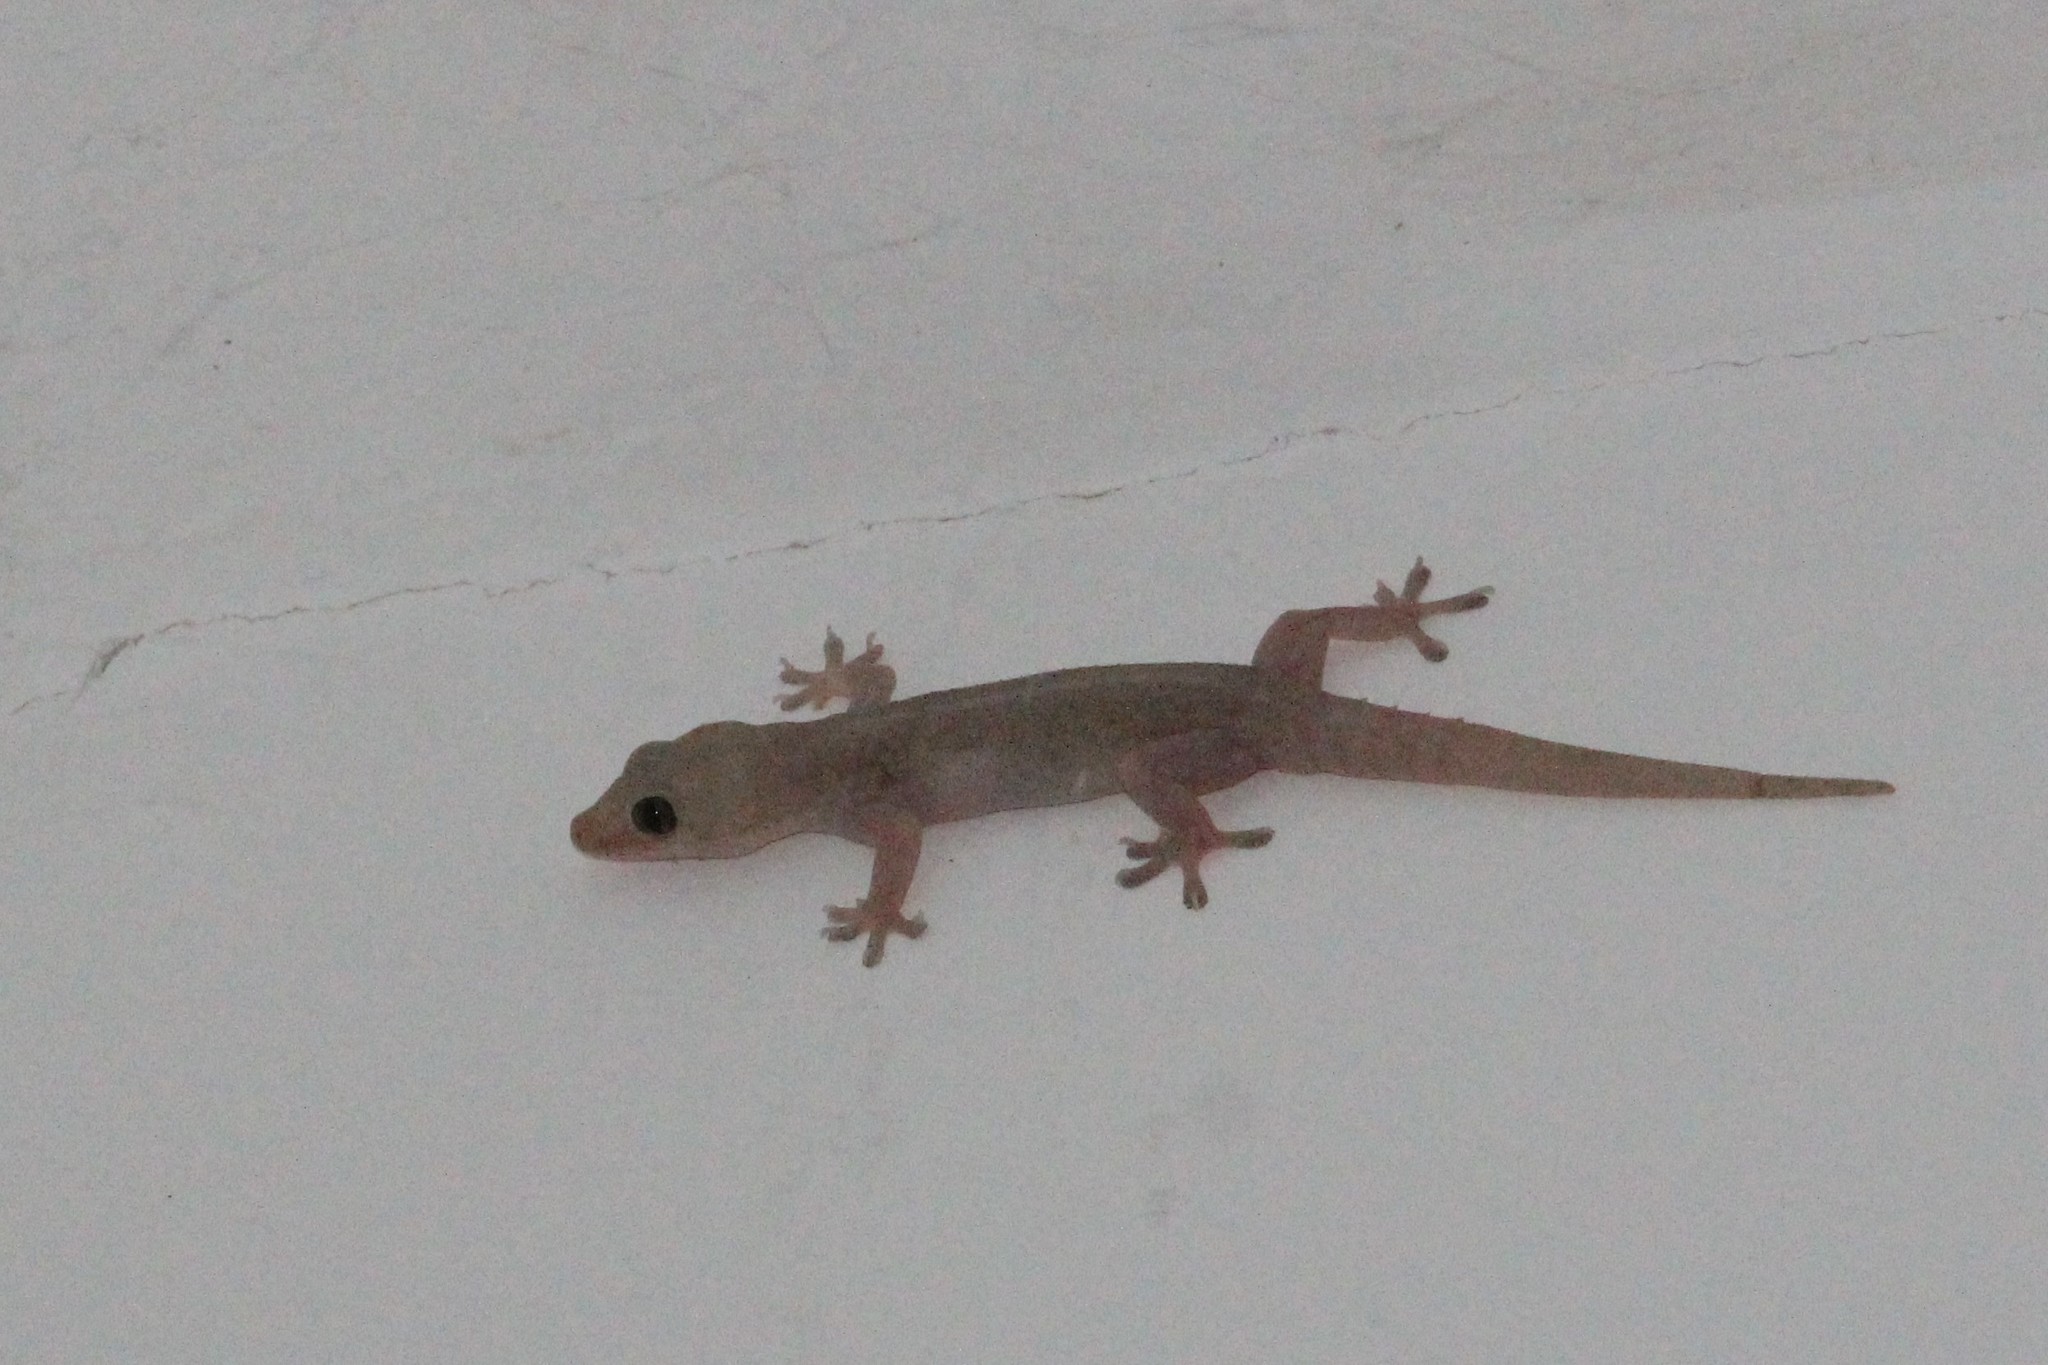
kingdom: Animalia
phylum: Chordata
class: Squamata
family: Gekkonidae
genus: Hemidactylus
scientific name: Hemidactylus frenatus
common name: Common house gecko
